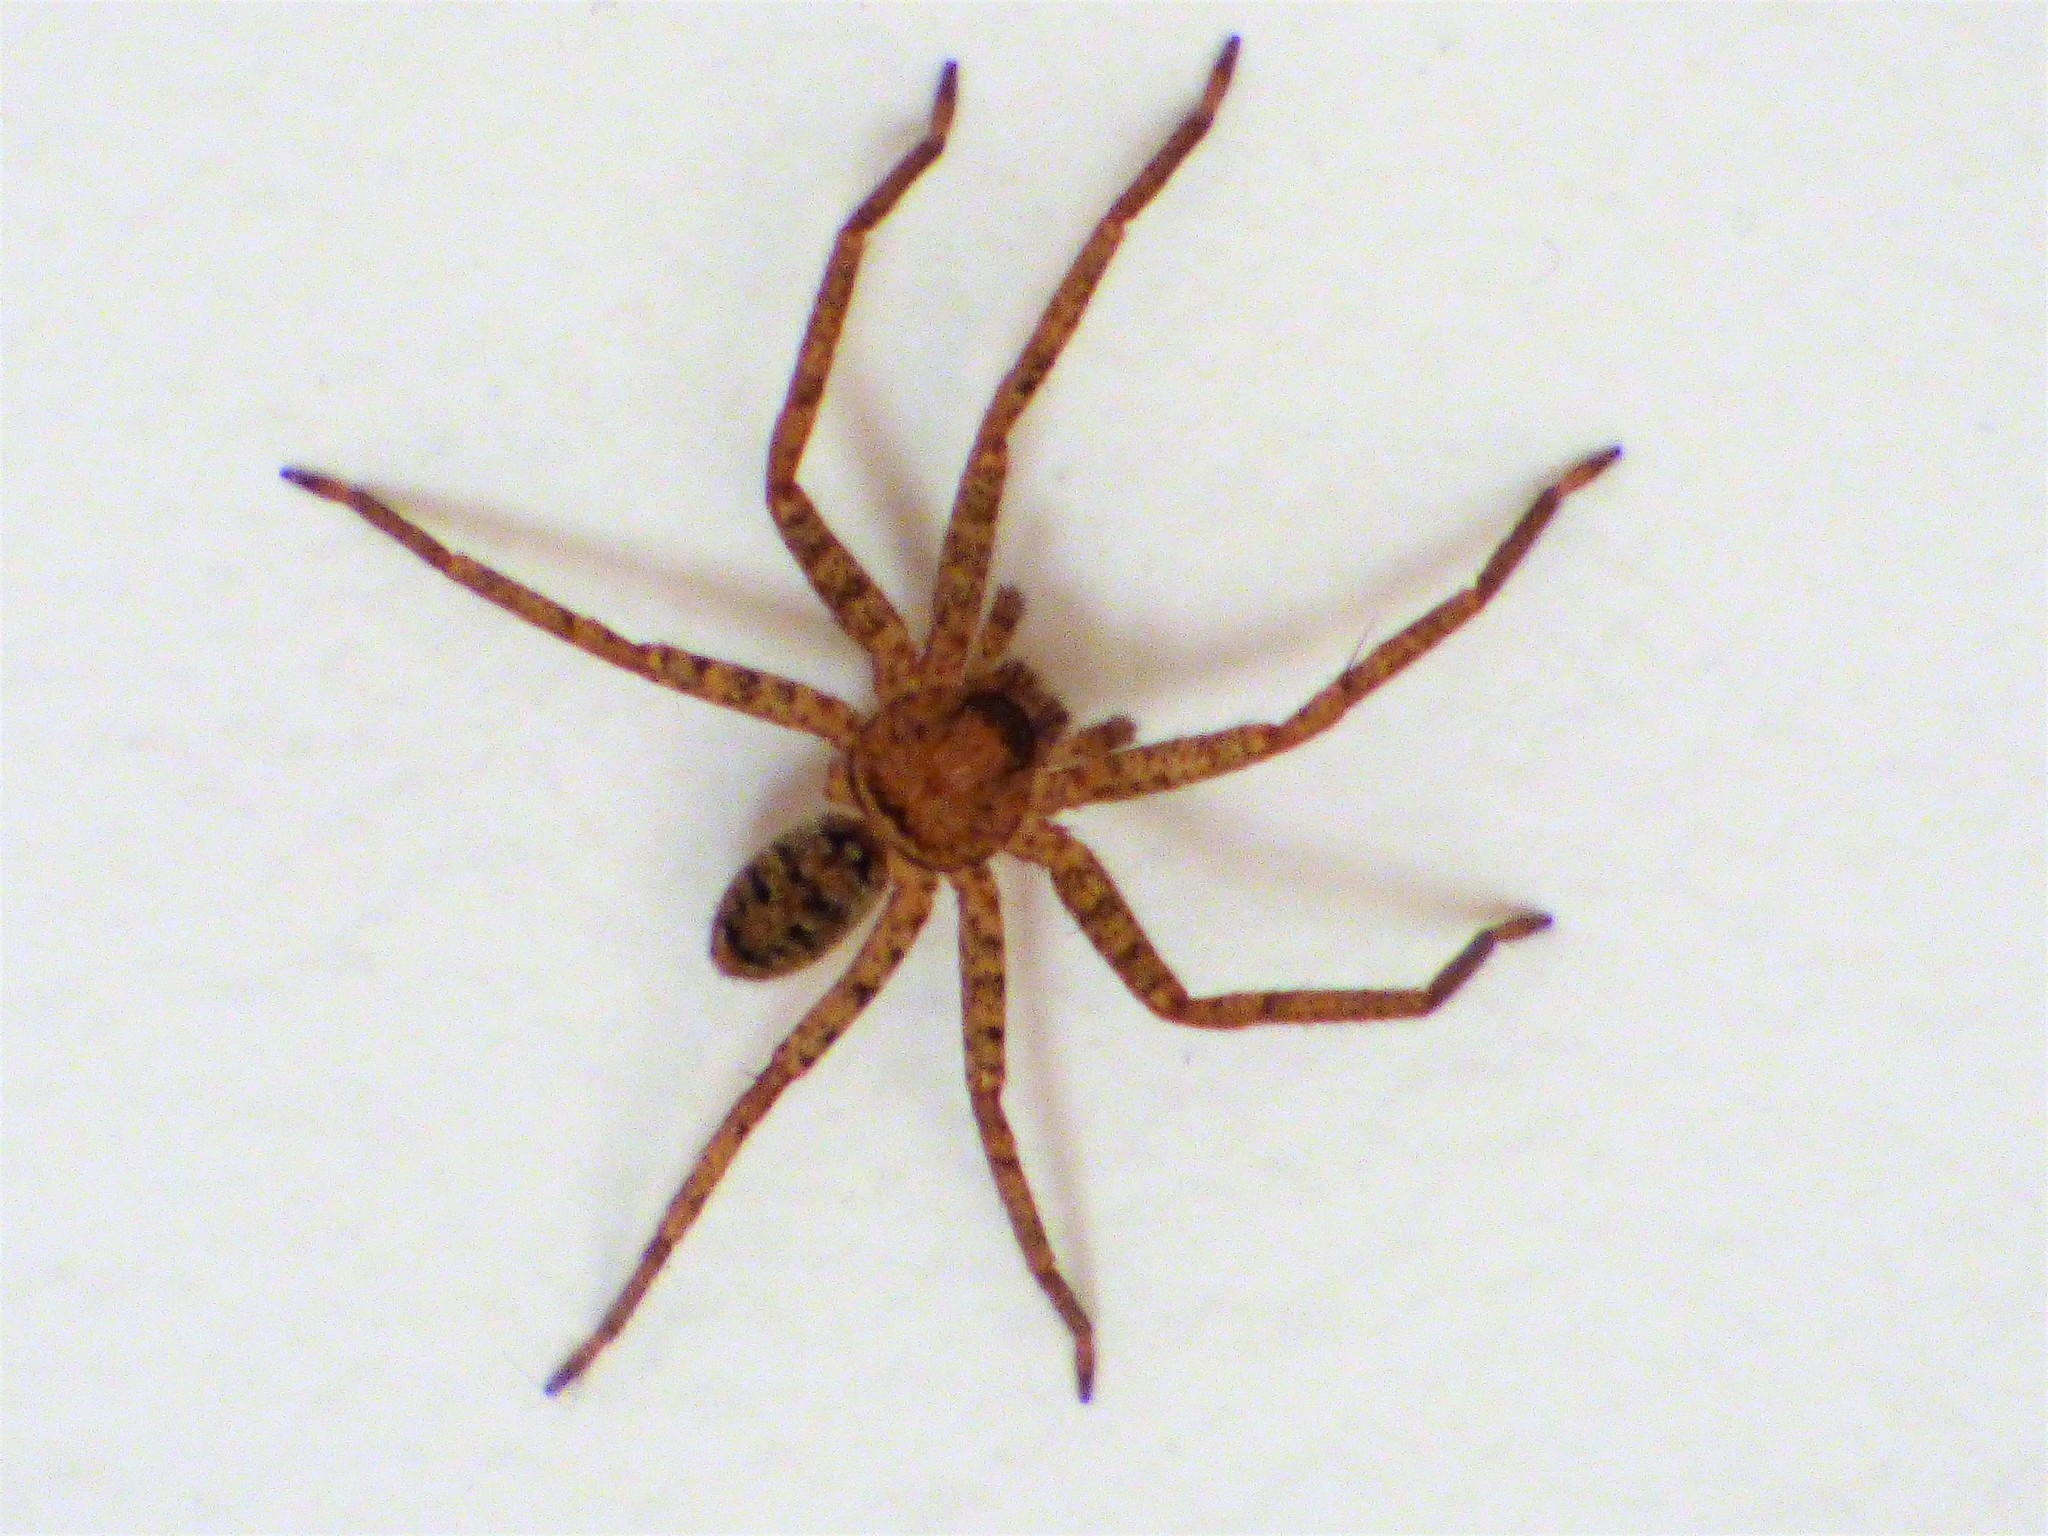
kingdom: Animalia
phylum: Arthropoda
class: Arachnida
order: Araneae
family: Sparassidae
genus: Heteropoda
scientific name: Heteropoda jugulans
